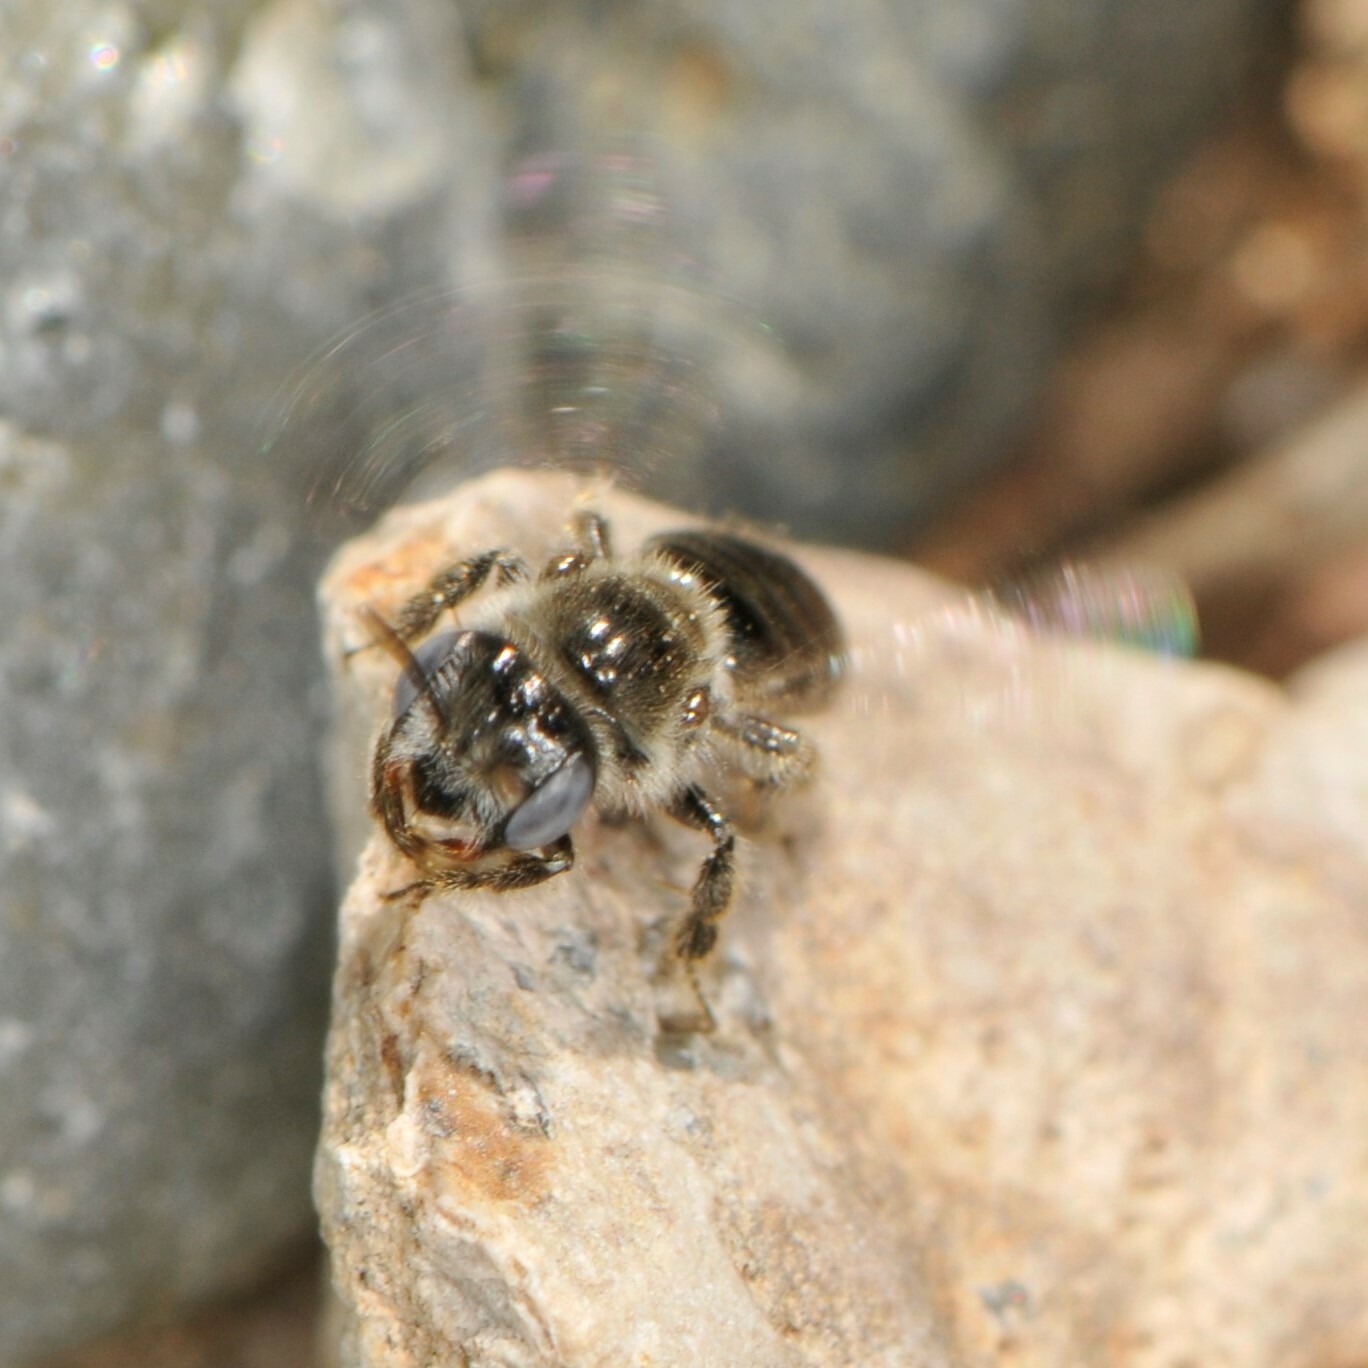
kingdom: Animalia
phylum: Arthropoda
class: Insecta
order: Hymenoptera
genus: Hypomacrotera
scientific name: Hypomacrotera
